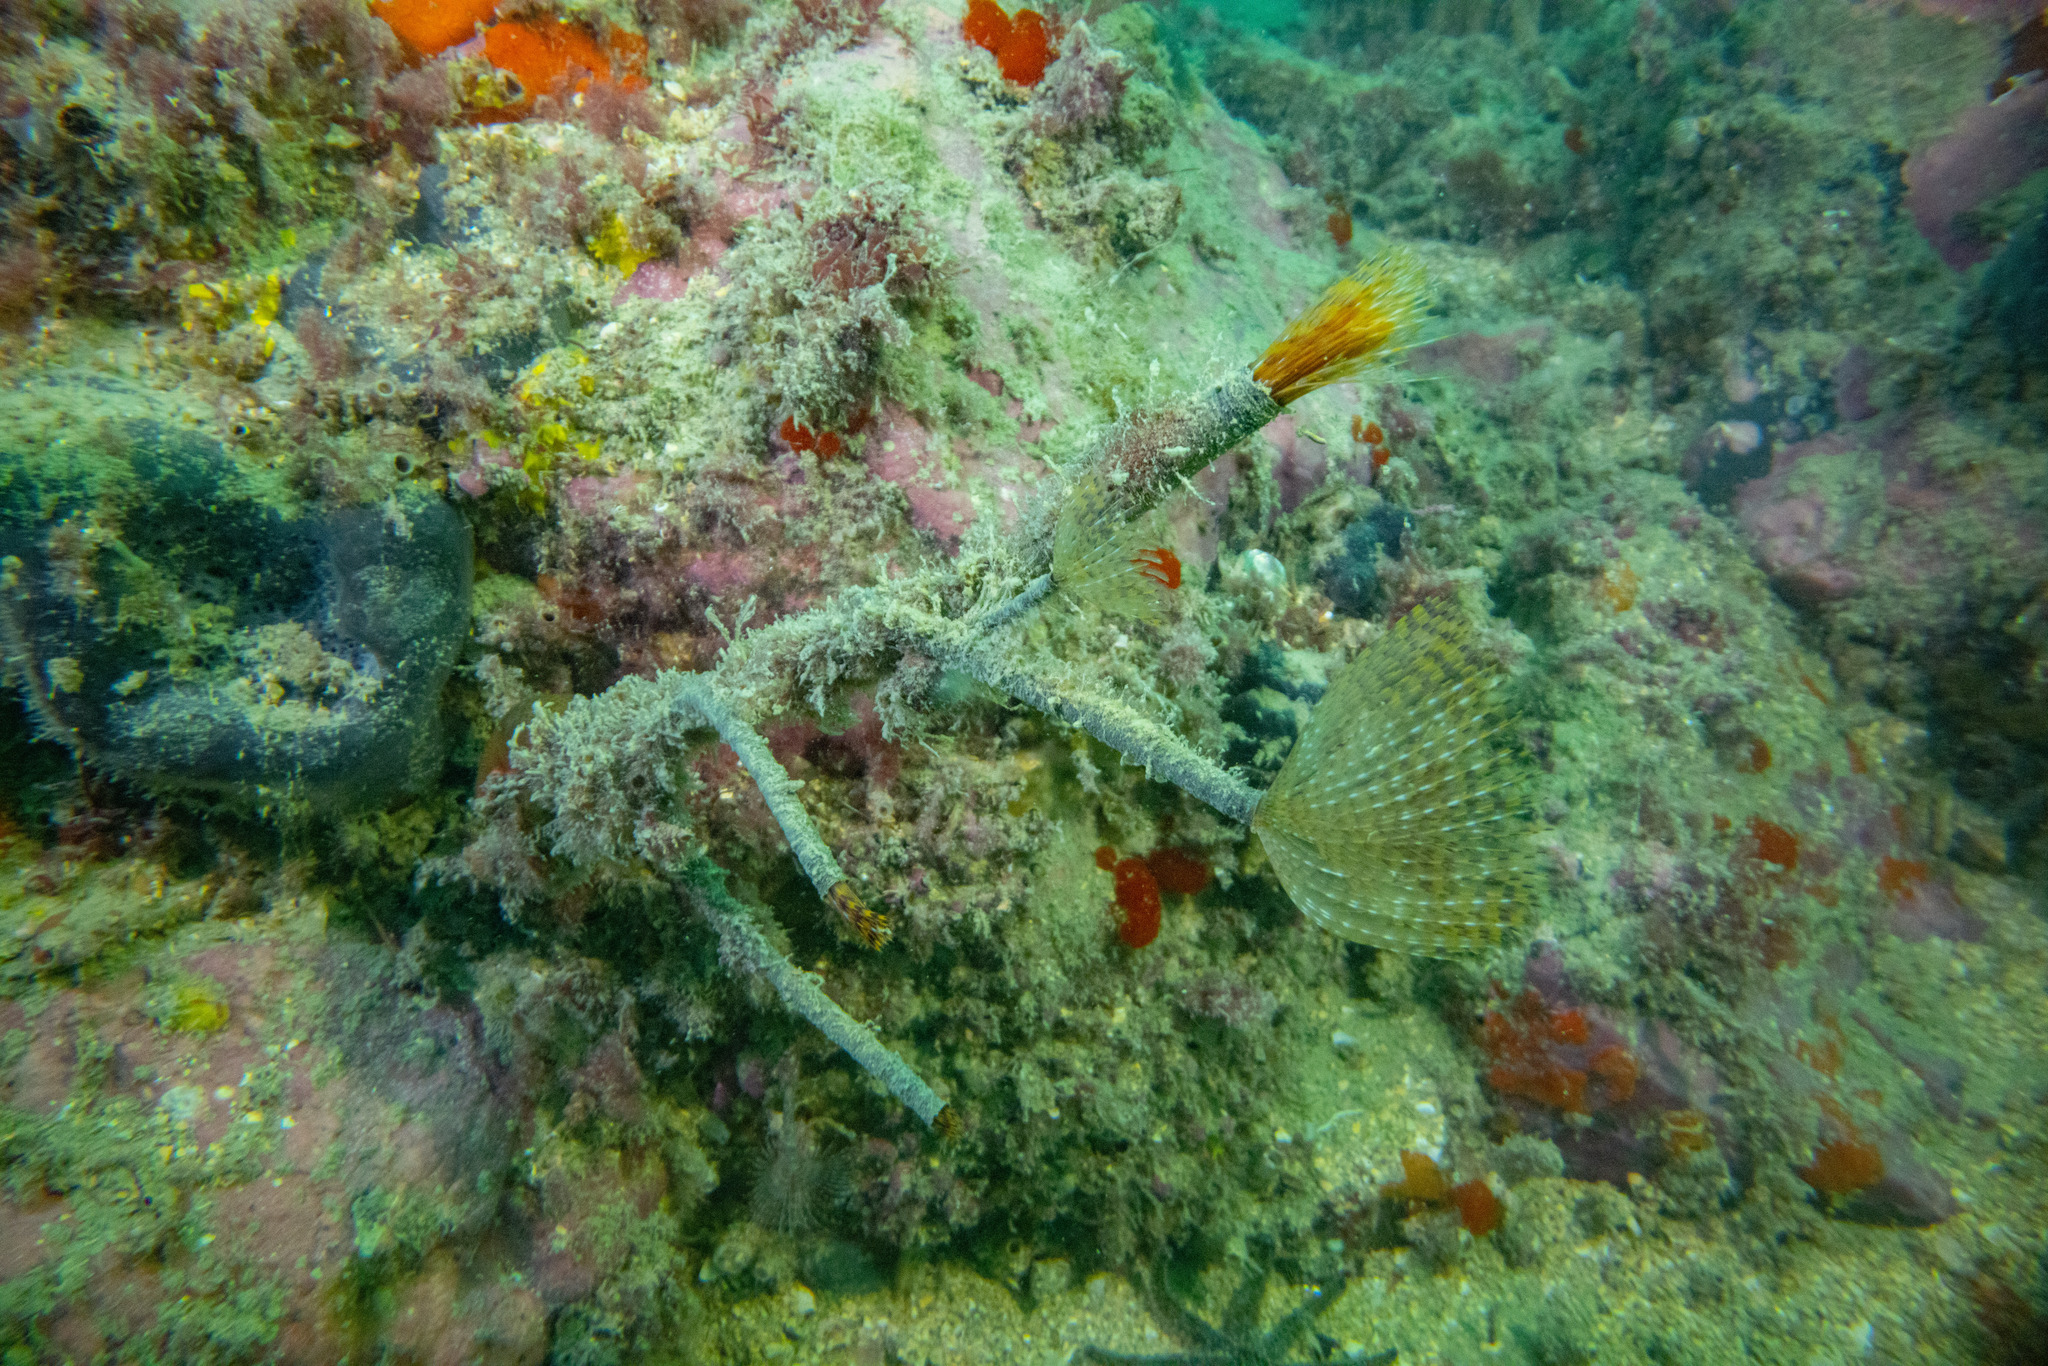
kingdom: Animalia
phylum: Annelida
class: Polychaeta
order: Sabellida
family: Sabellidae
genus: Sabella
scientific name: Sabella spallanzanii
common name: Feather duster worm
